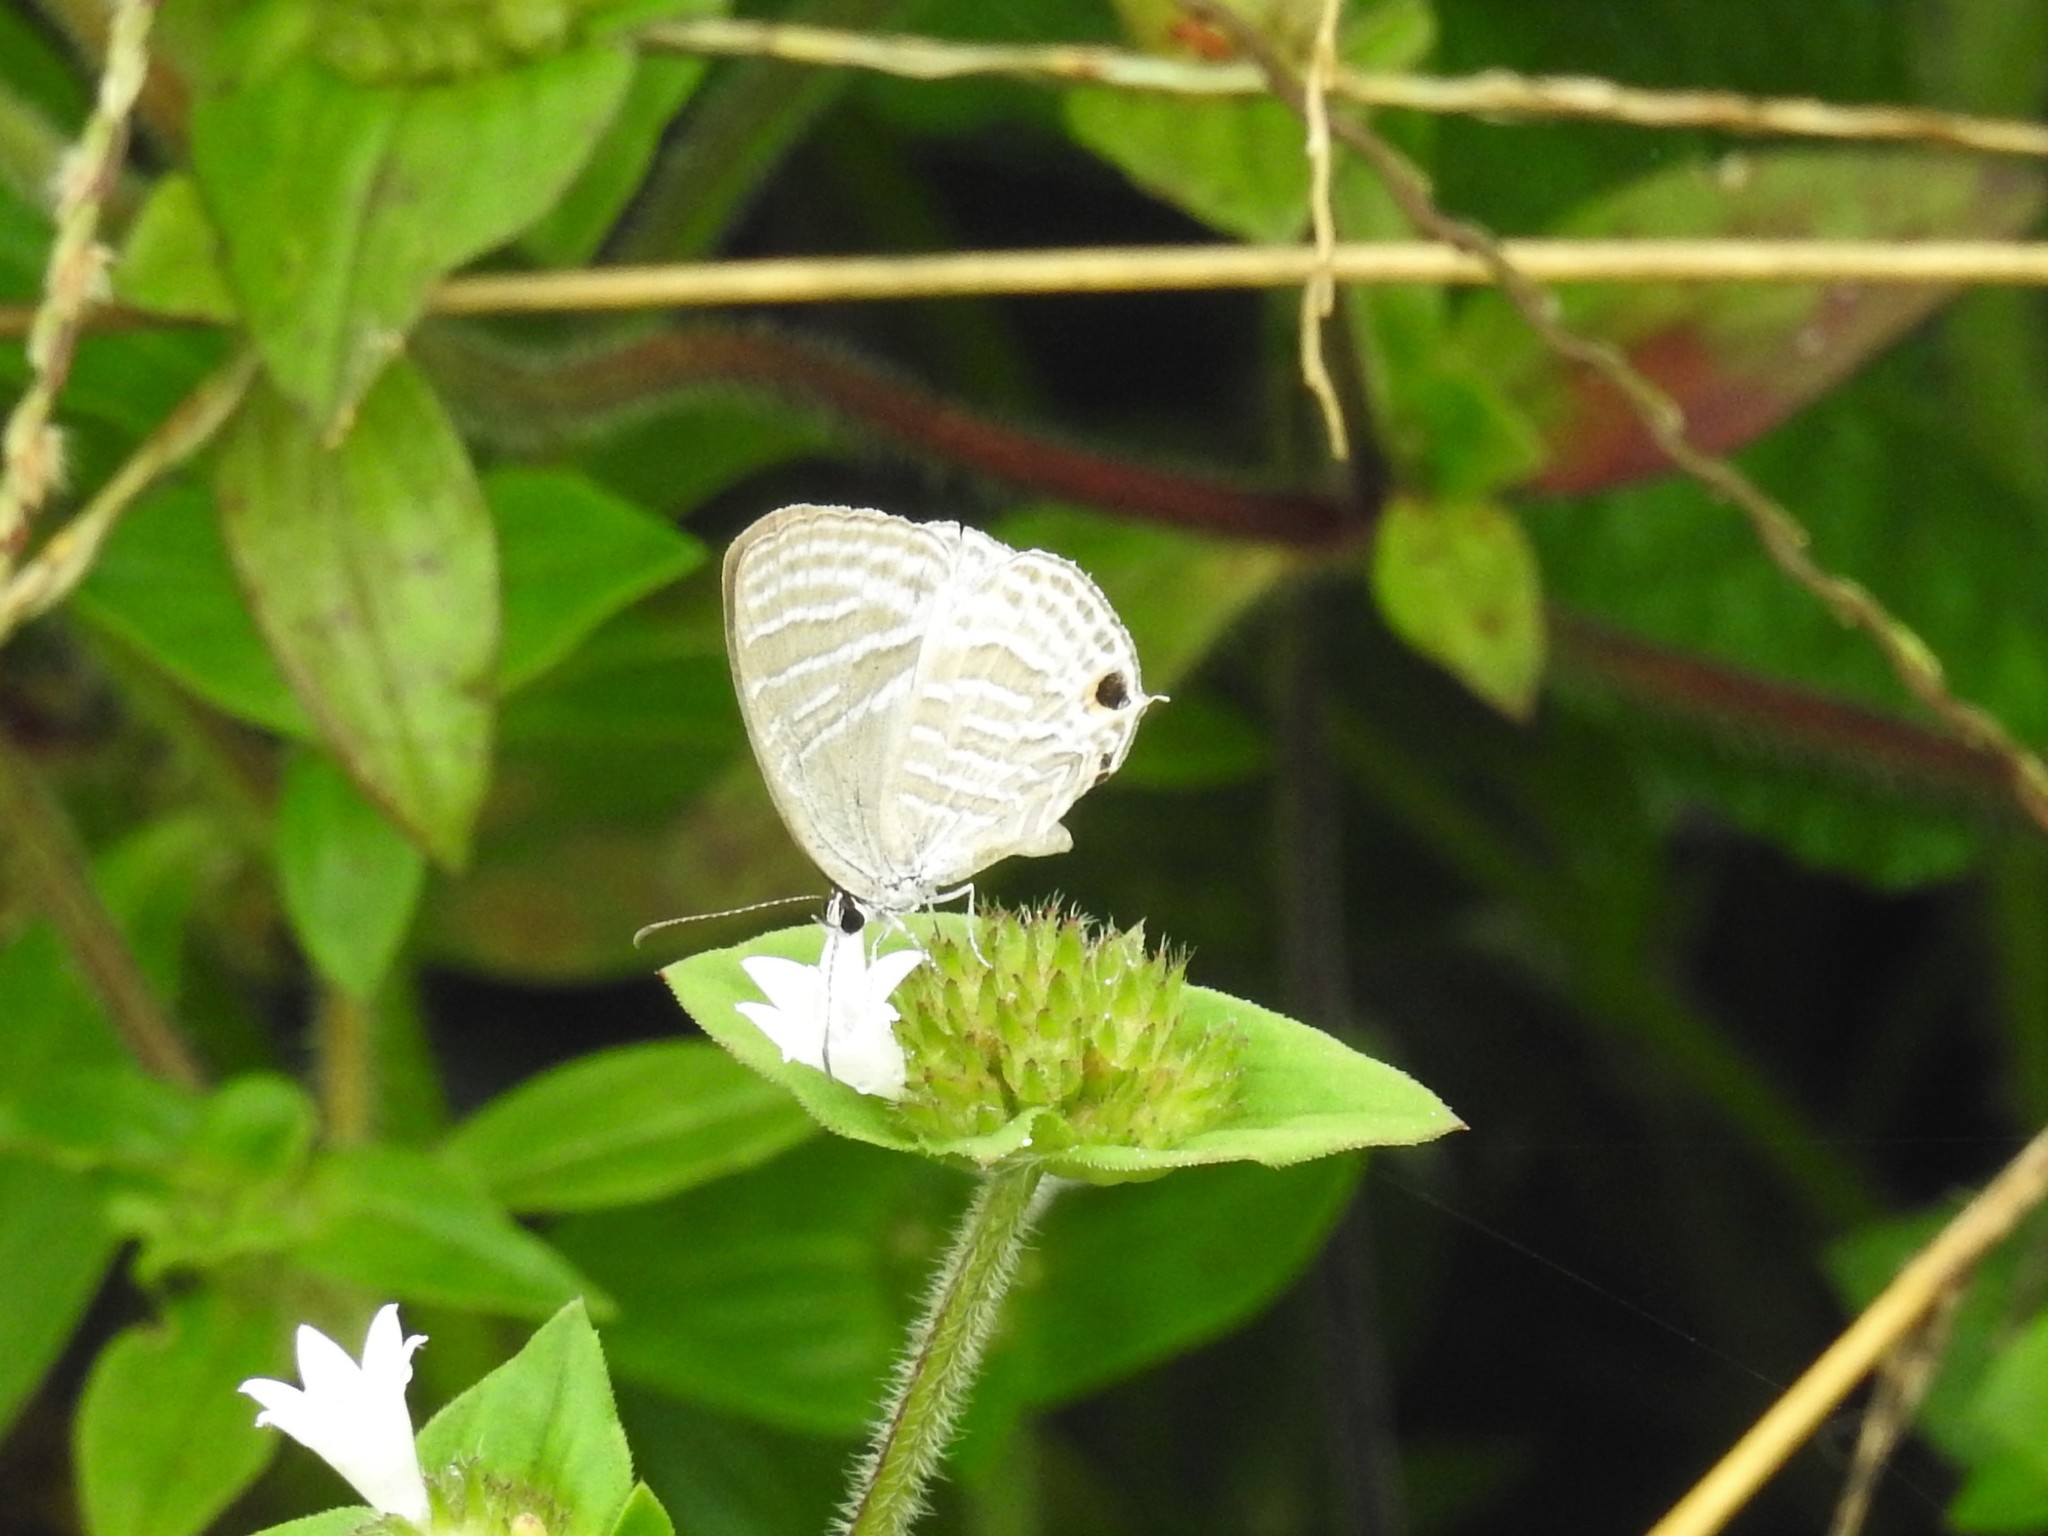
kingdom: Animalia
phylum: Arthropoda
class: Insecta
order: Lepidoptera
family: Lycaenidae
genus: Jamides
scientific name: Jamides celeno
